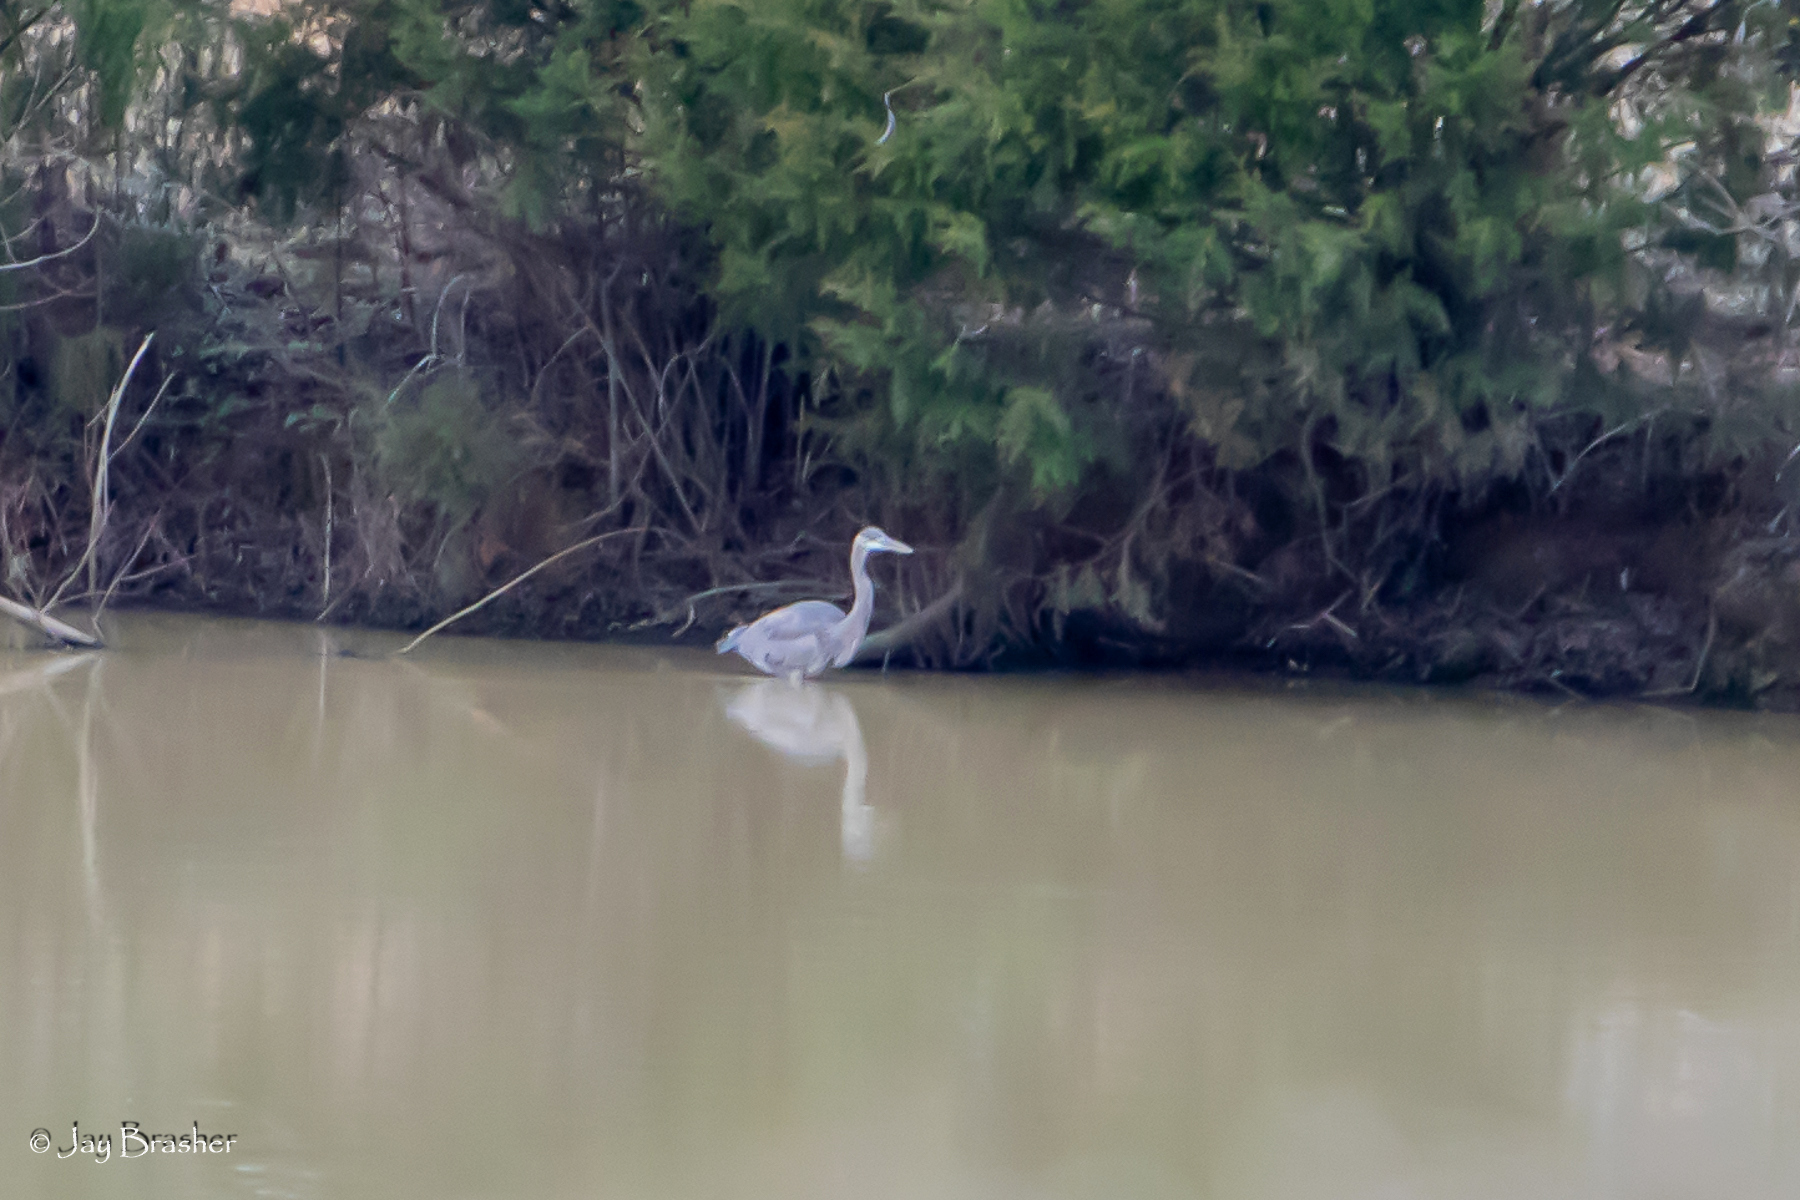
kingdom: Animalia
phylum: Chordata
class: Aves
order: Pelecaniformes
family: Ardeidae
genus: Ardea
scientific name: Ardea herodias
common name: Great blue heron
